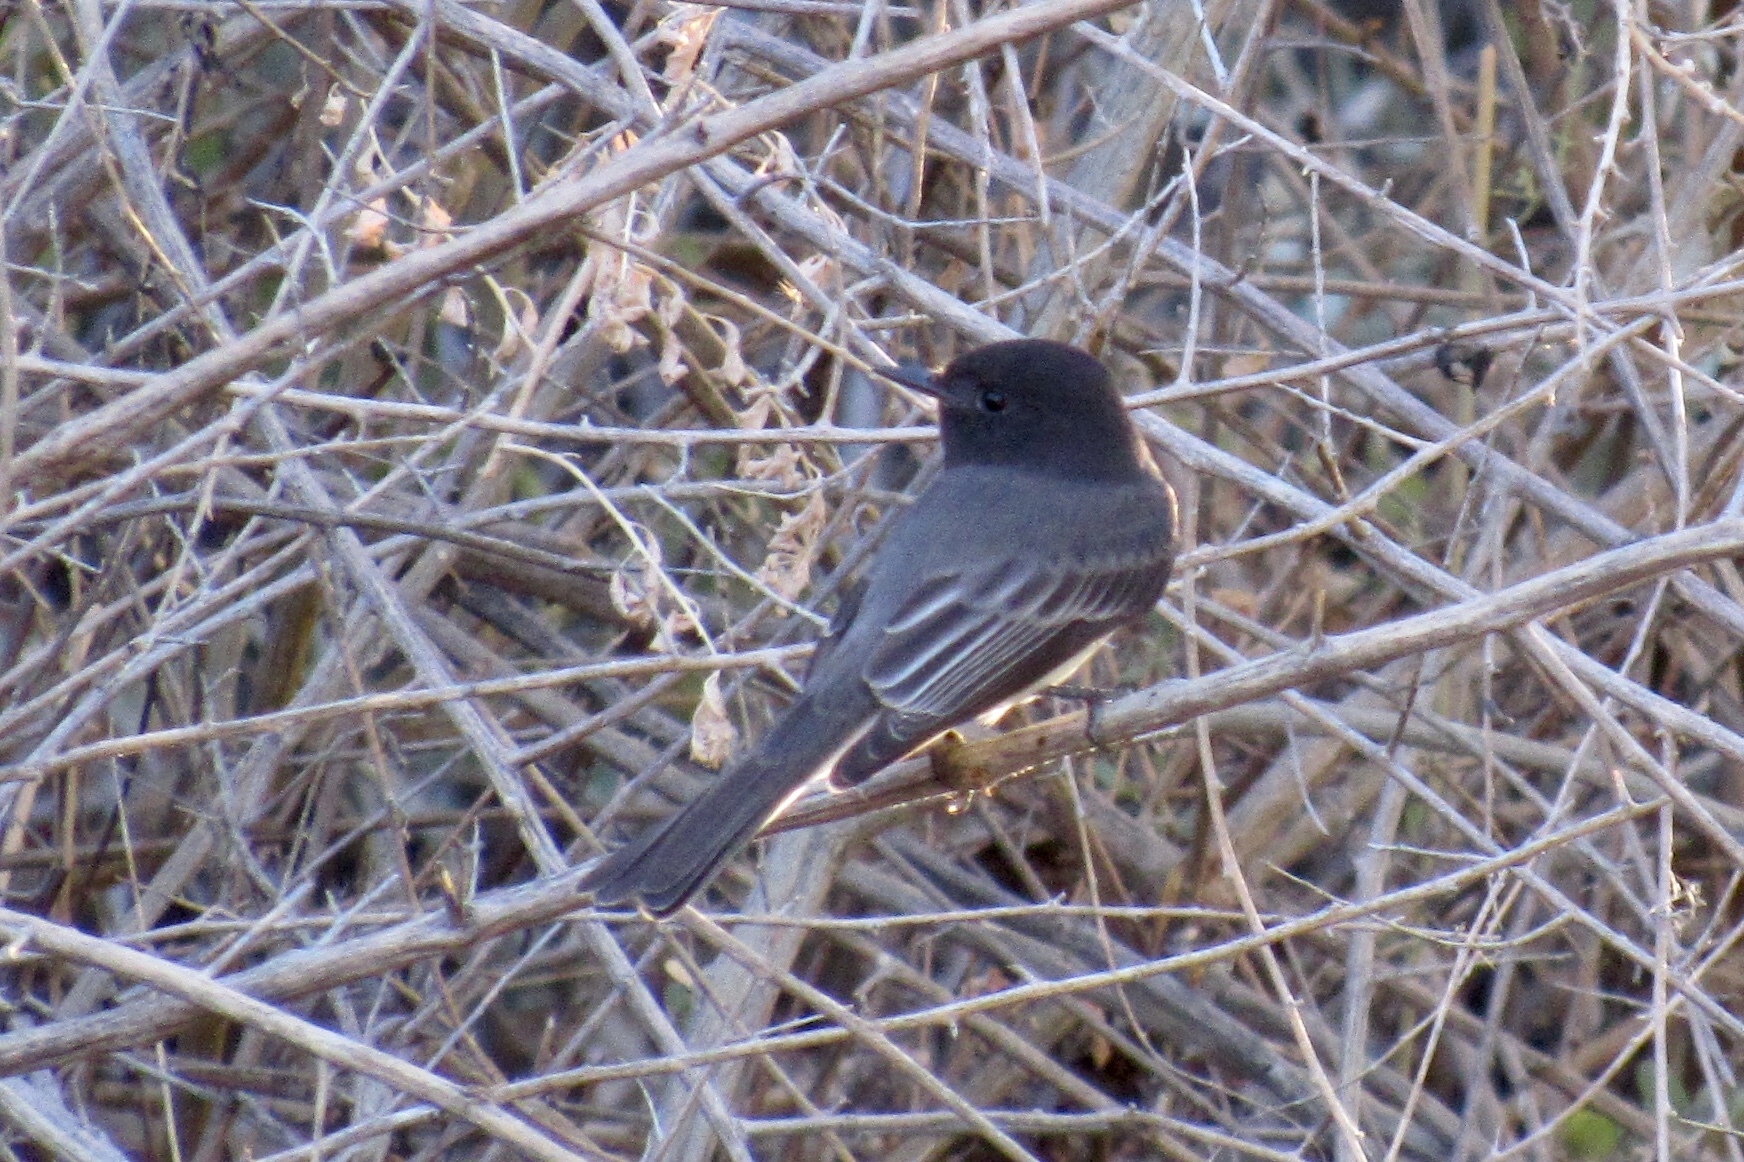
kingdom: Animalia
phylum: Chordata
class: Aves
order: Passeriformes
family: Tyrannidae
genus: Sayornis
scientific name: Sayornis nigricans
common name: Black phoebe
